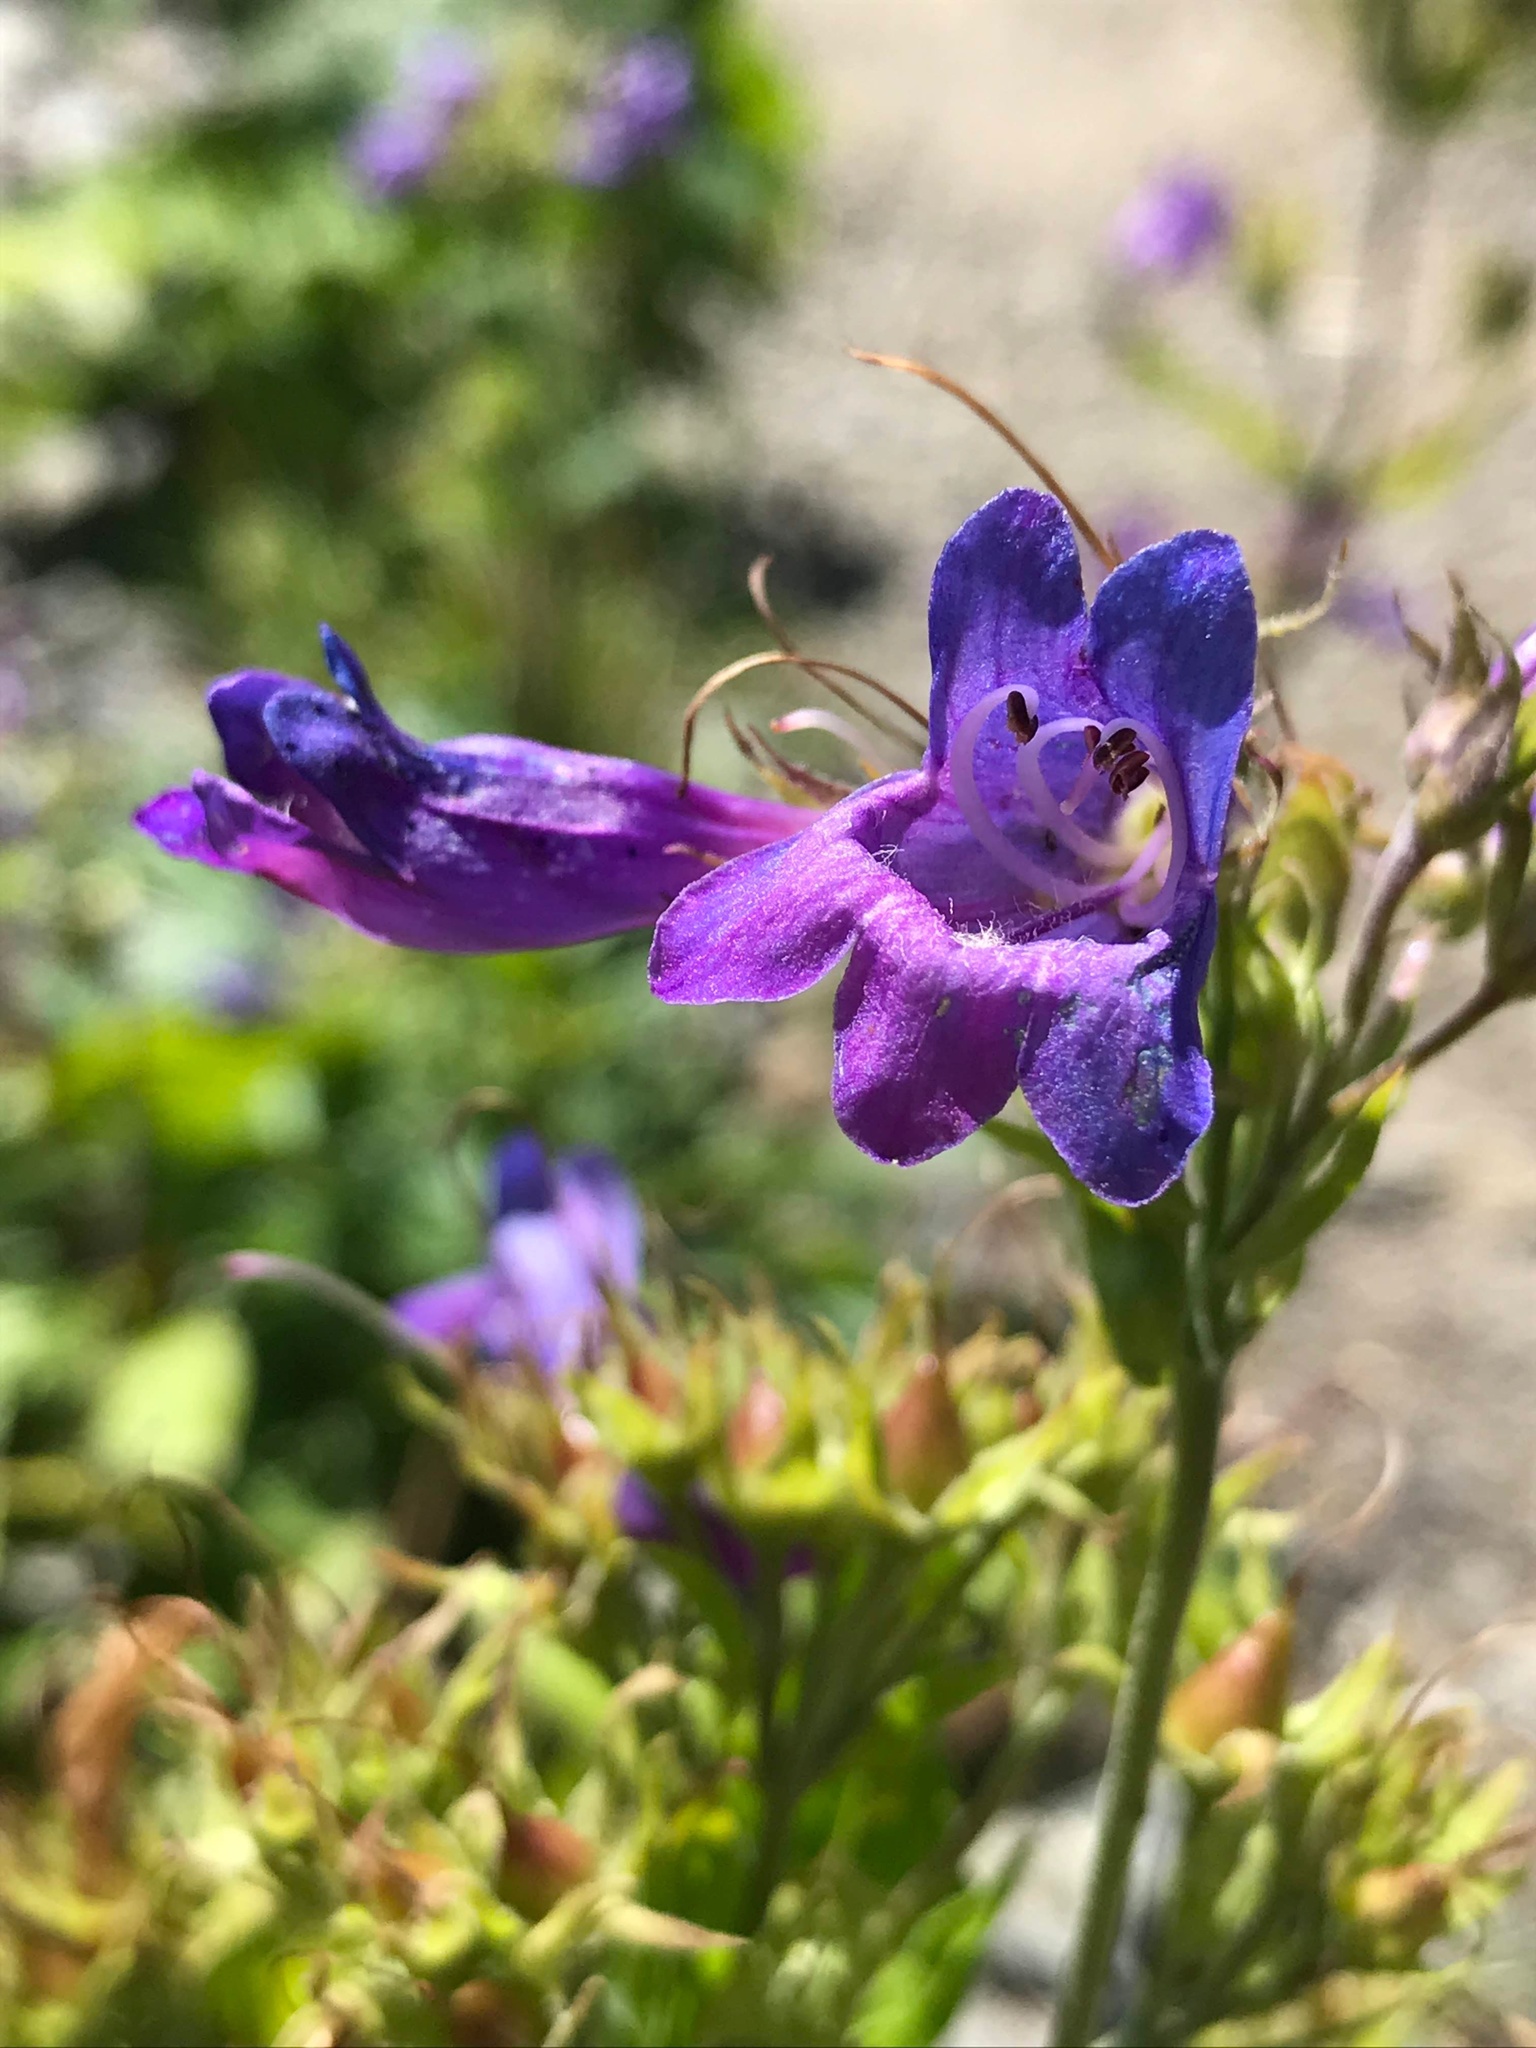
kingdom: Plantae
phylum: Tracheophyta
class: Magnoliopsida
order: Lamiales
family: Plantaginaceae
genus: Penstemon
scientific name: Penstemon serrulatus
